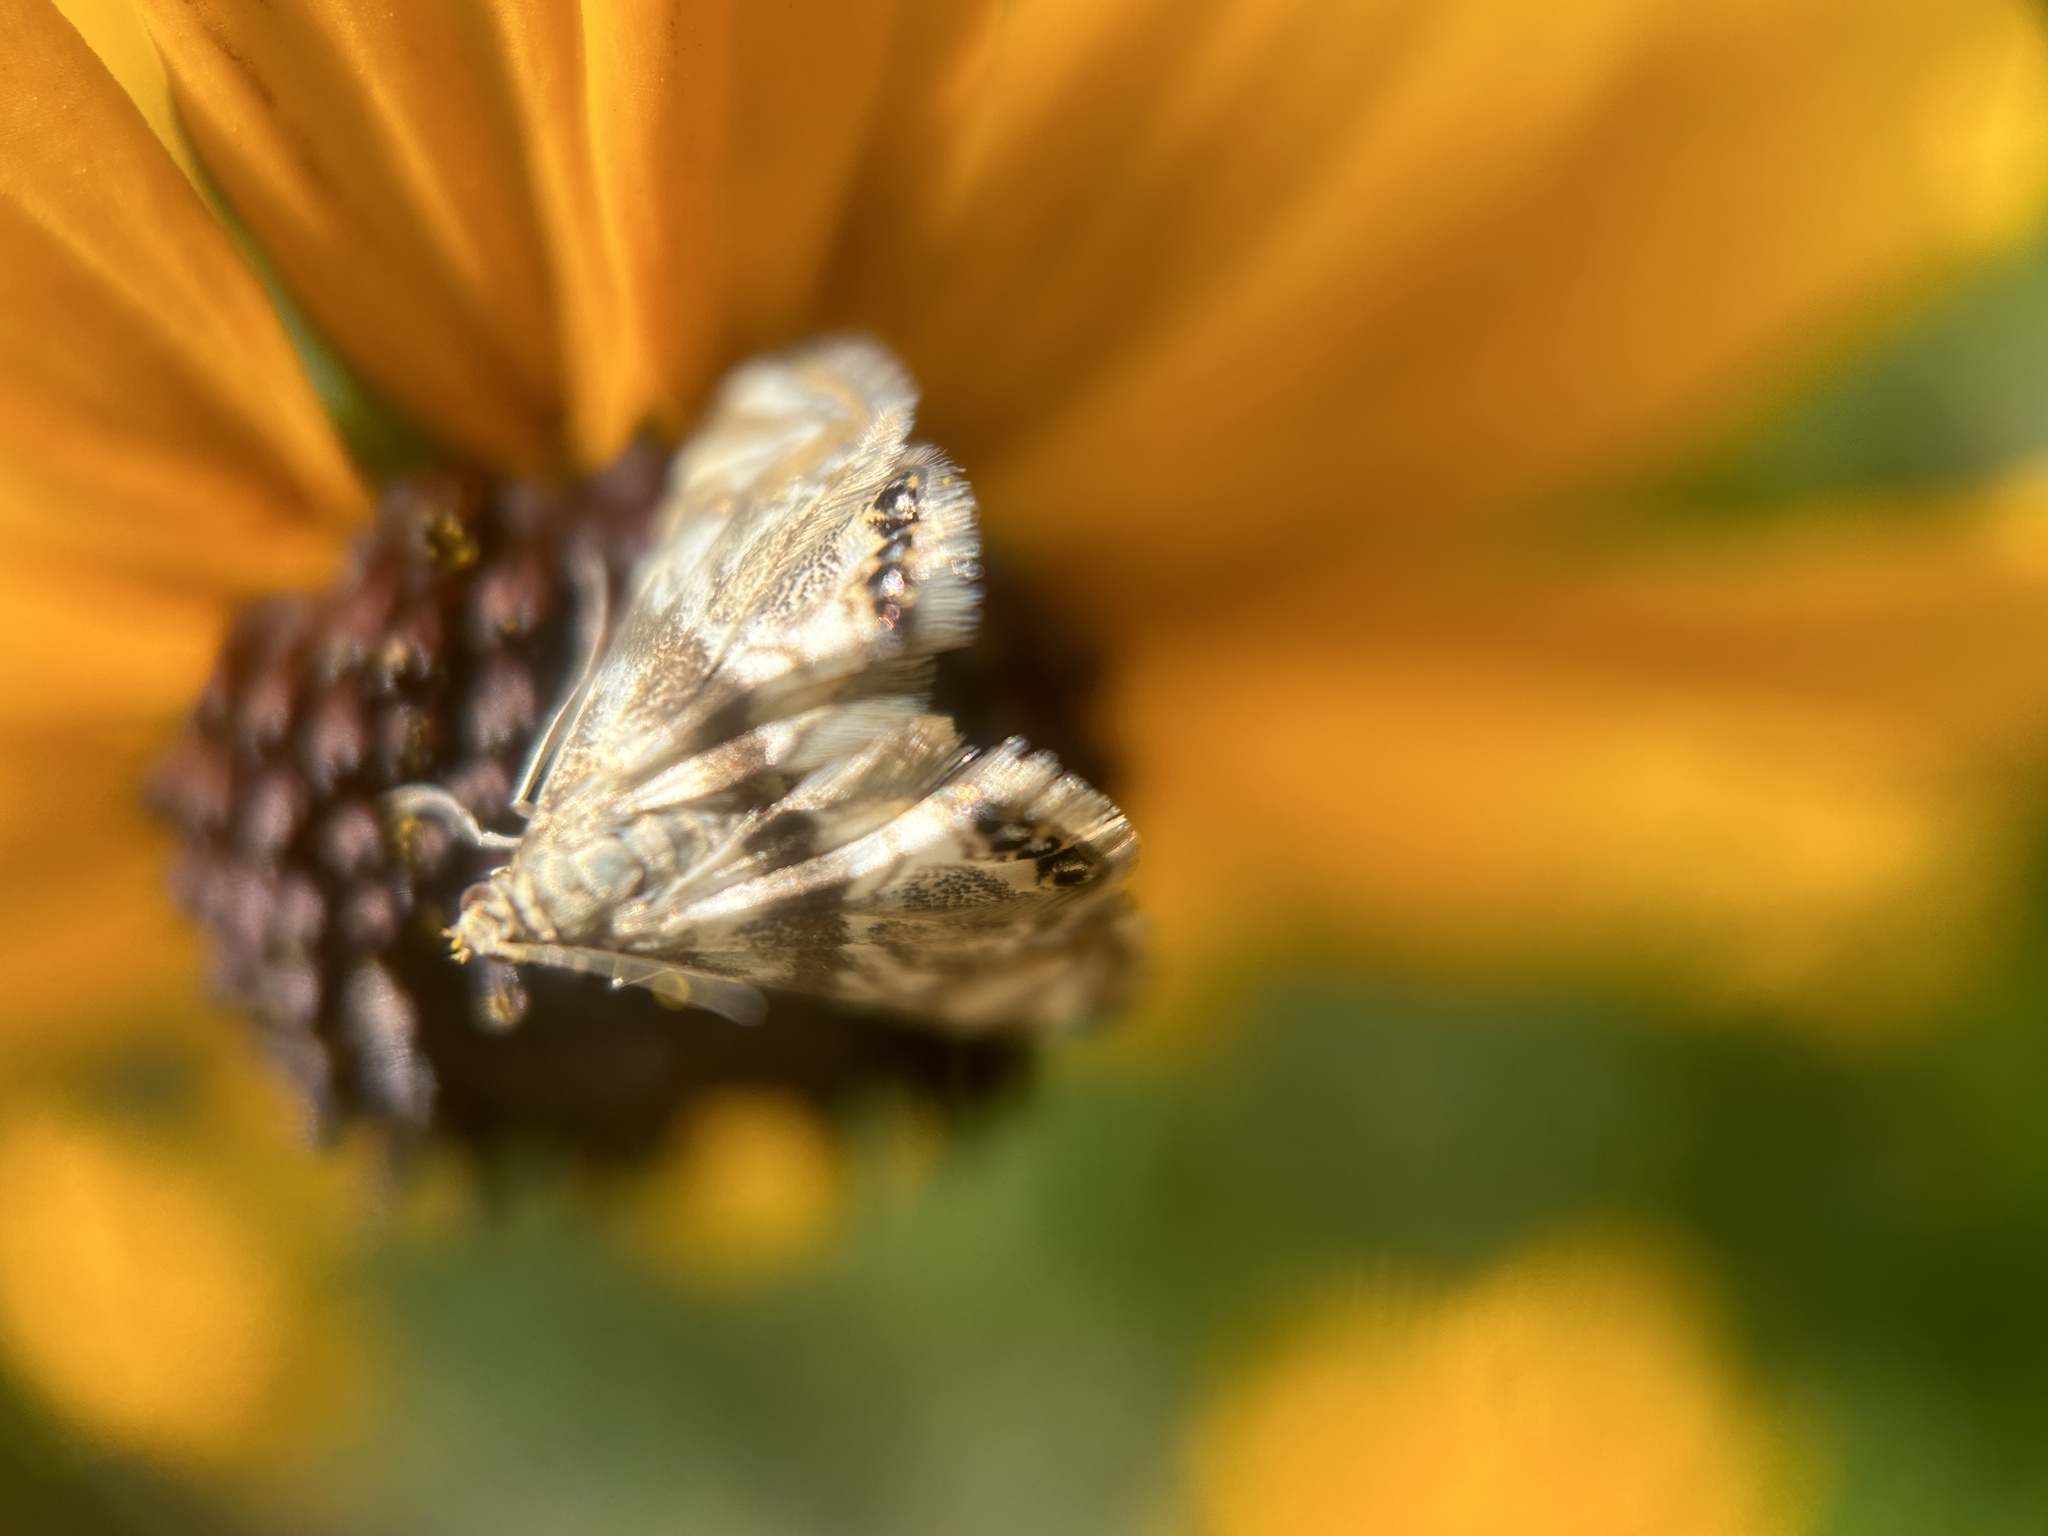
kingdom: Animalia
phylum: Arthropoda
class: Insecta
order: Lepidoptera
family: Crambidae
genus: Petrophila
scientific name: Petrophila canadensis
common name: Canadian petrophila
